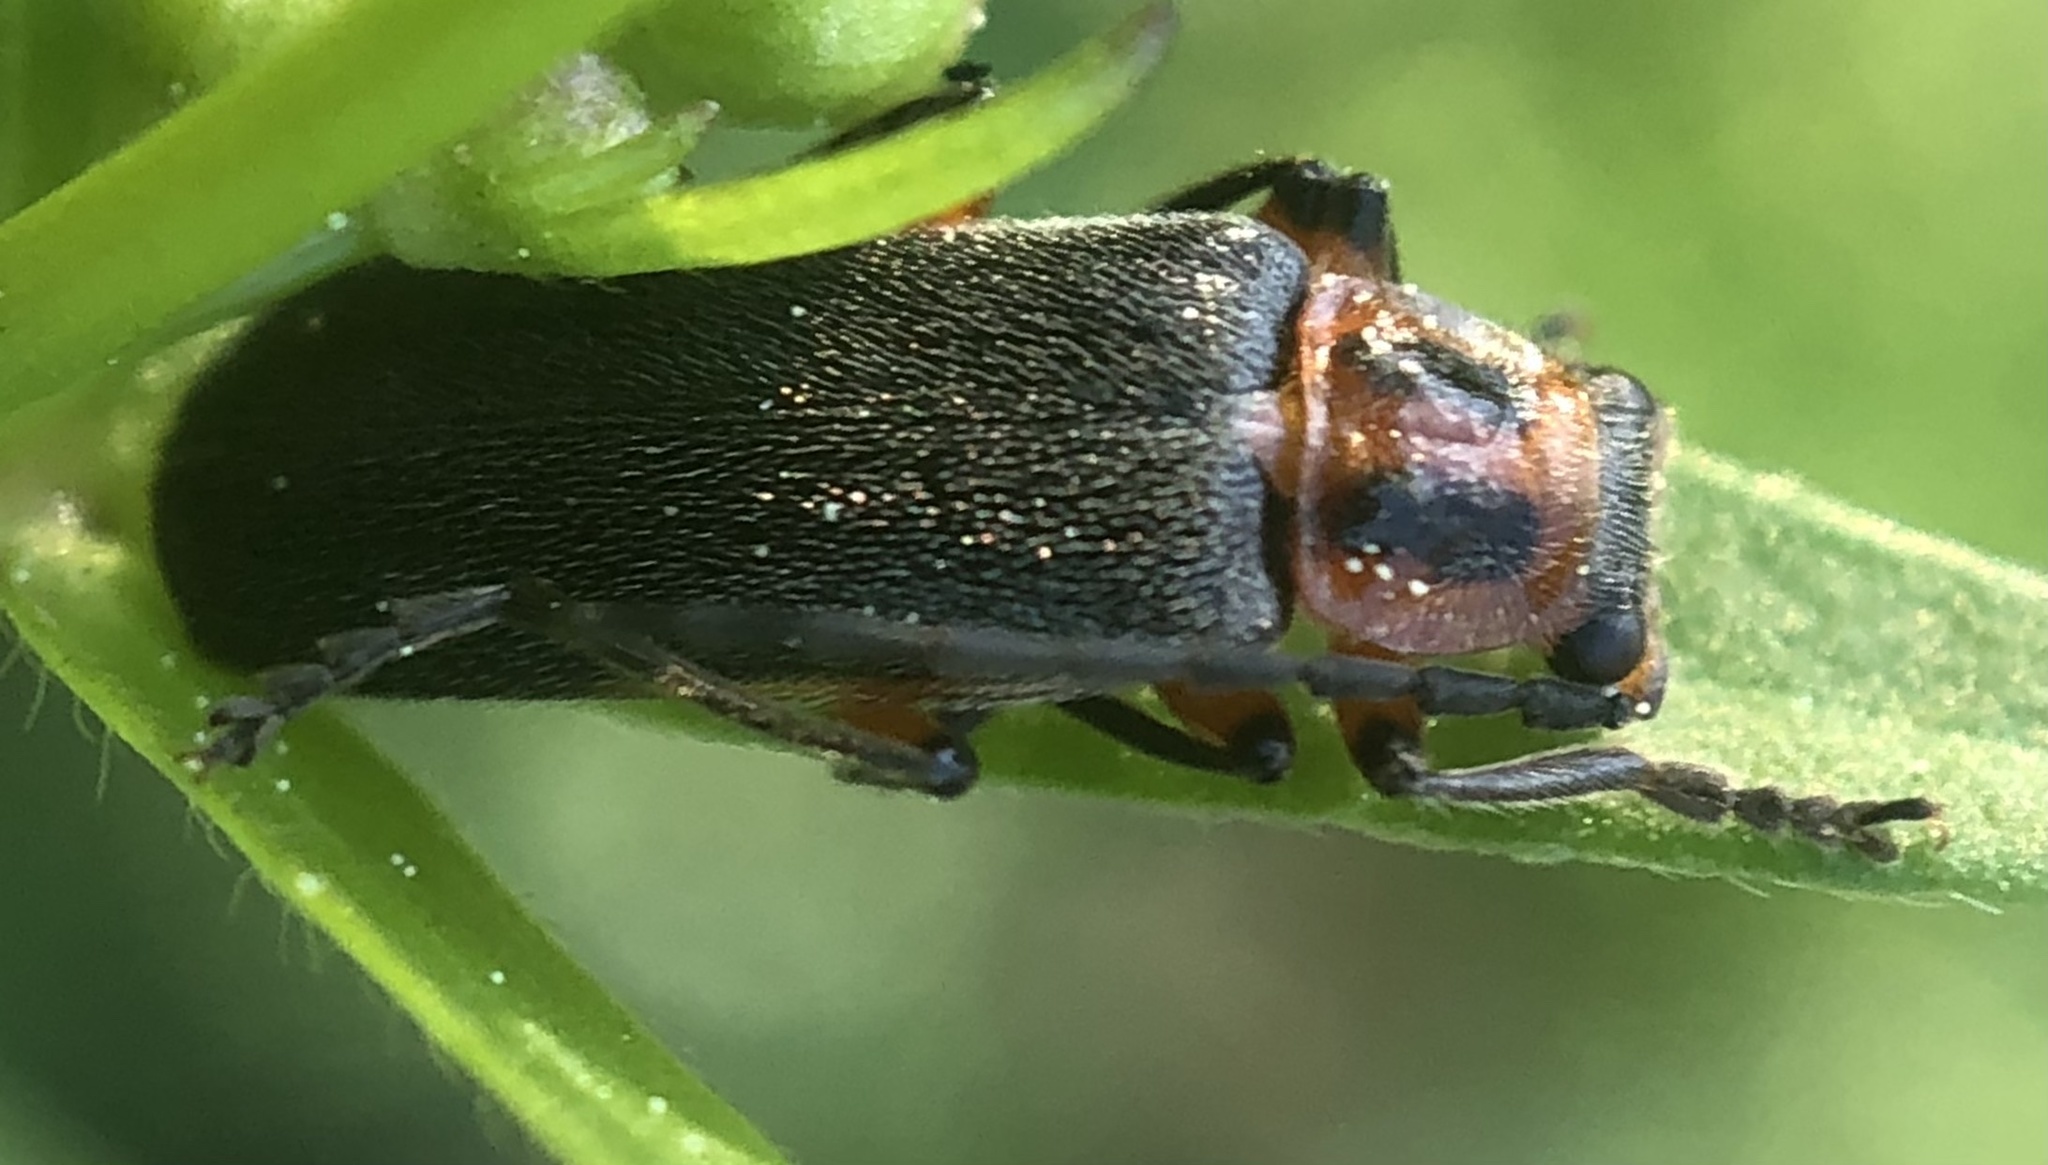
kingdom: Animalia
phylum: Arthropoda
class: Insecta
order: Coleoptera
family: Cantharidae
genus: Atalantycha
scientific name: Atalantycha bilineata
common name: Two-lined leatherwing
